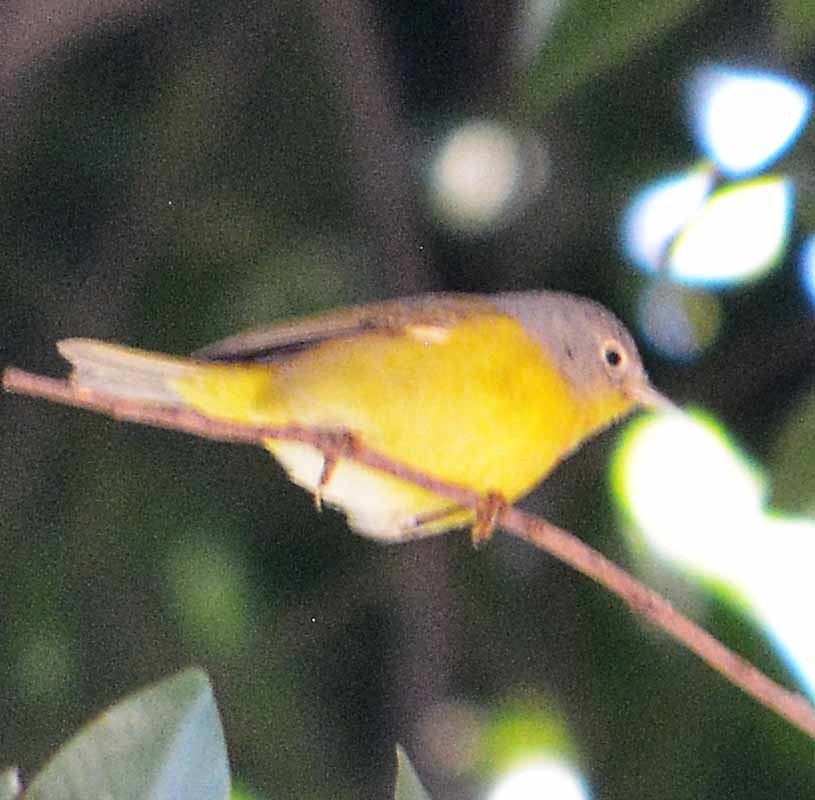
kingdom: Animalia
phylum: Chordata
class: Aves
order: Passeriformes
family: Parulidae
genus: Leiothlypis
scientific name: Leiothlypis ruficapilla
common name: Nashville warbler
